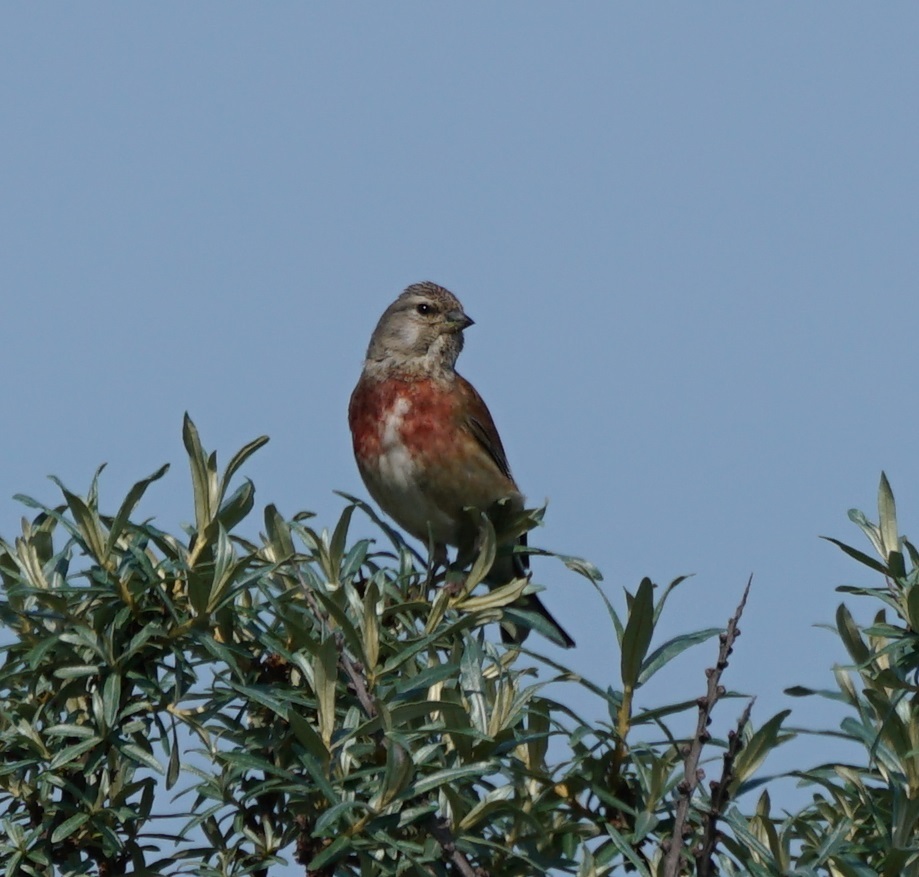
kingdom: Animalia
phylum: Chordata
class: Aves
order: Passeriformes
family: Fringillidae
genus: Linaria
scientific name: Linaria cannabina
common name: Common linnet
